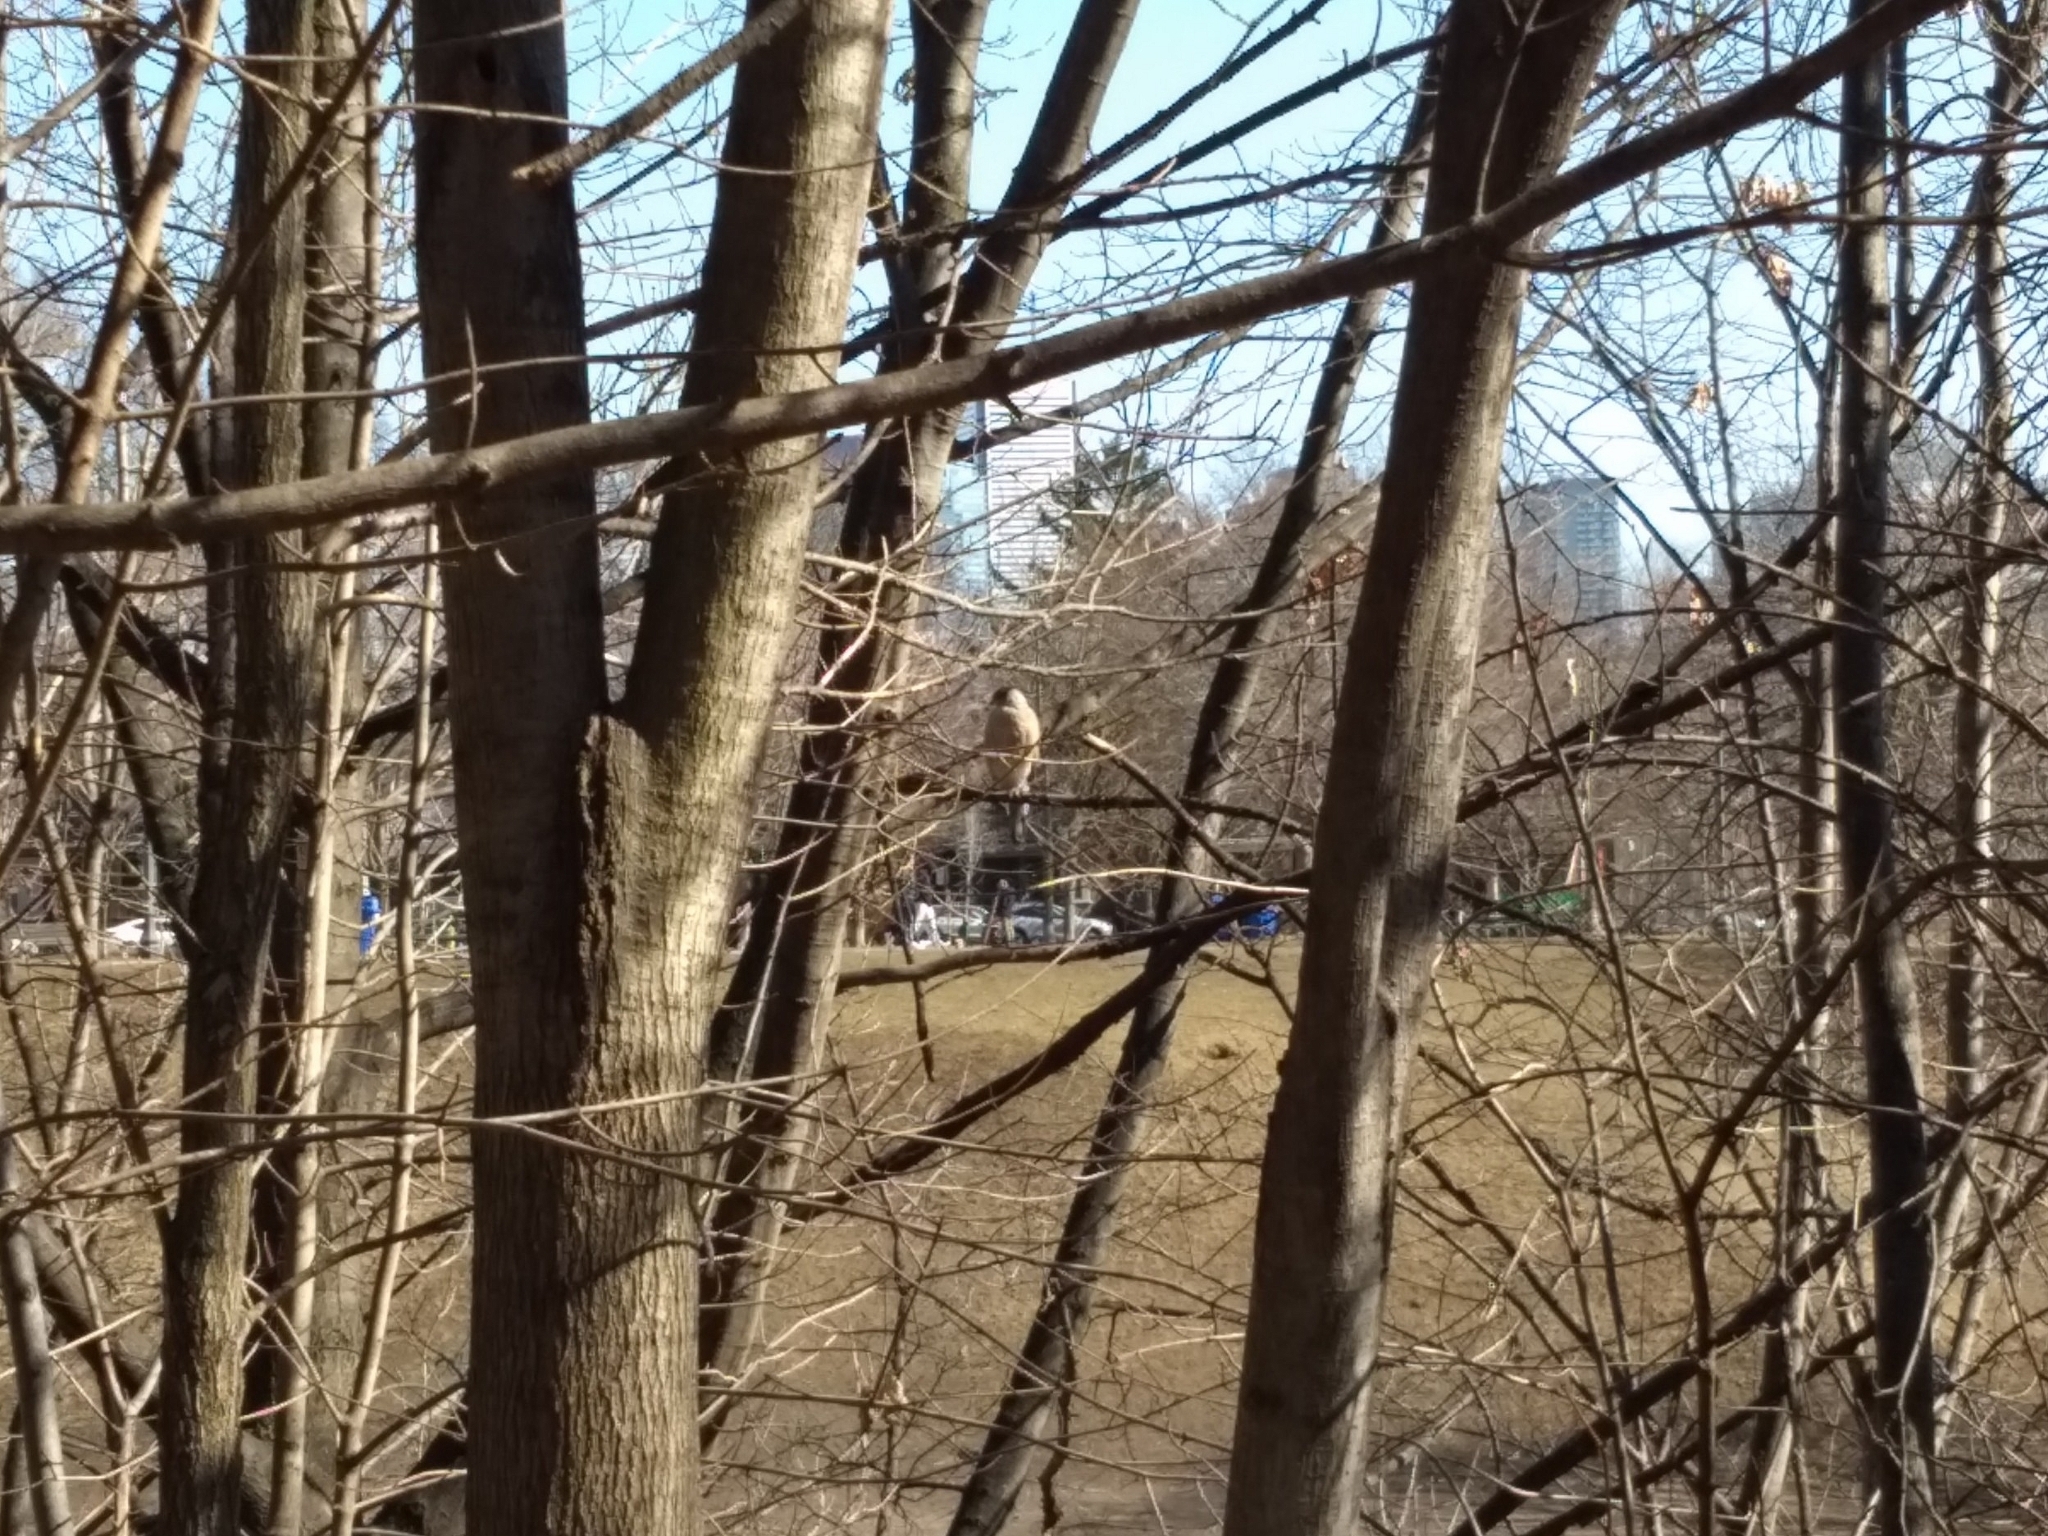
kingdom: Animalia
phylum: Chordata
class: Aves
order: Accipitriformes
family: Accipitridae
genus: Accipiter
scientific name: Accipiter cooperii
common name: Cooper's hawk
